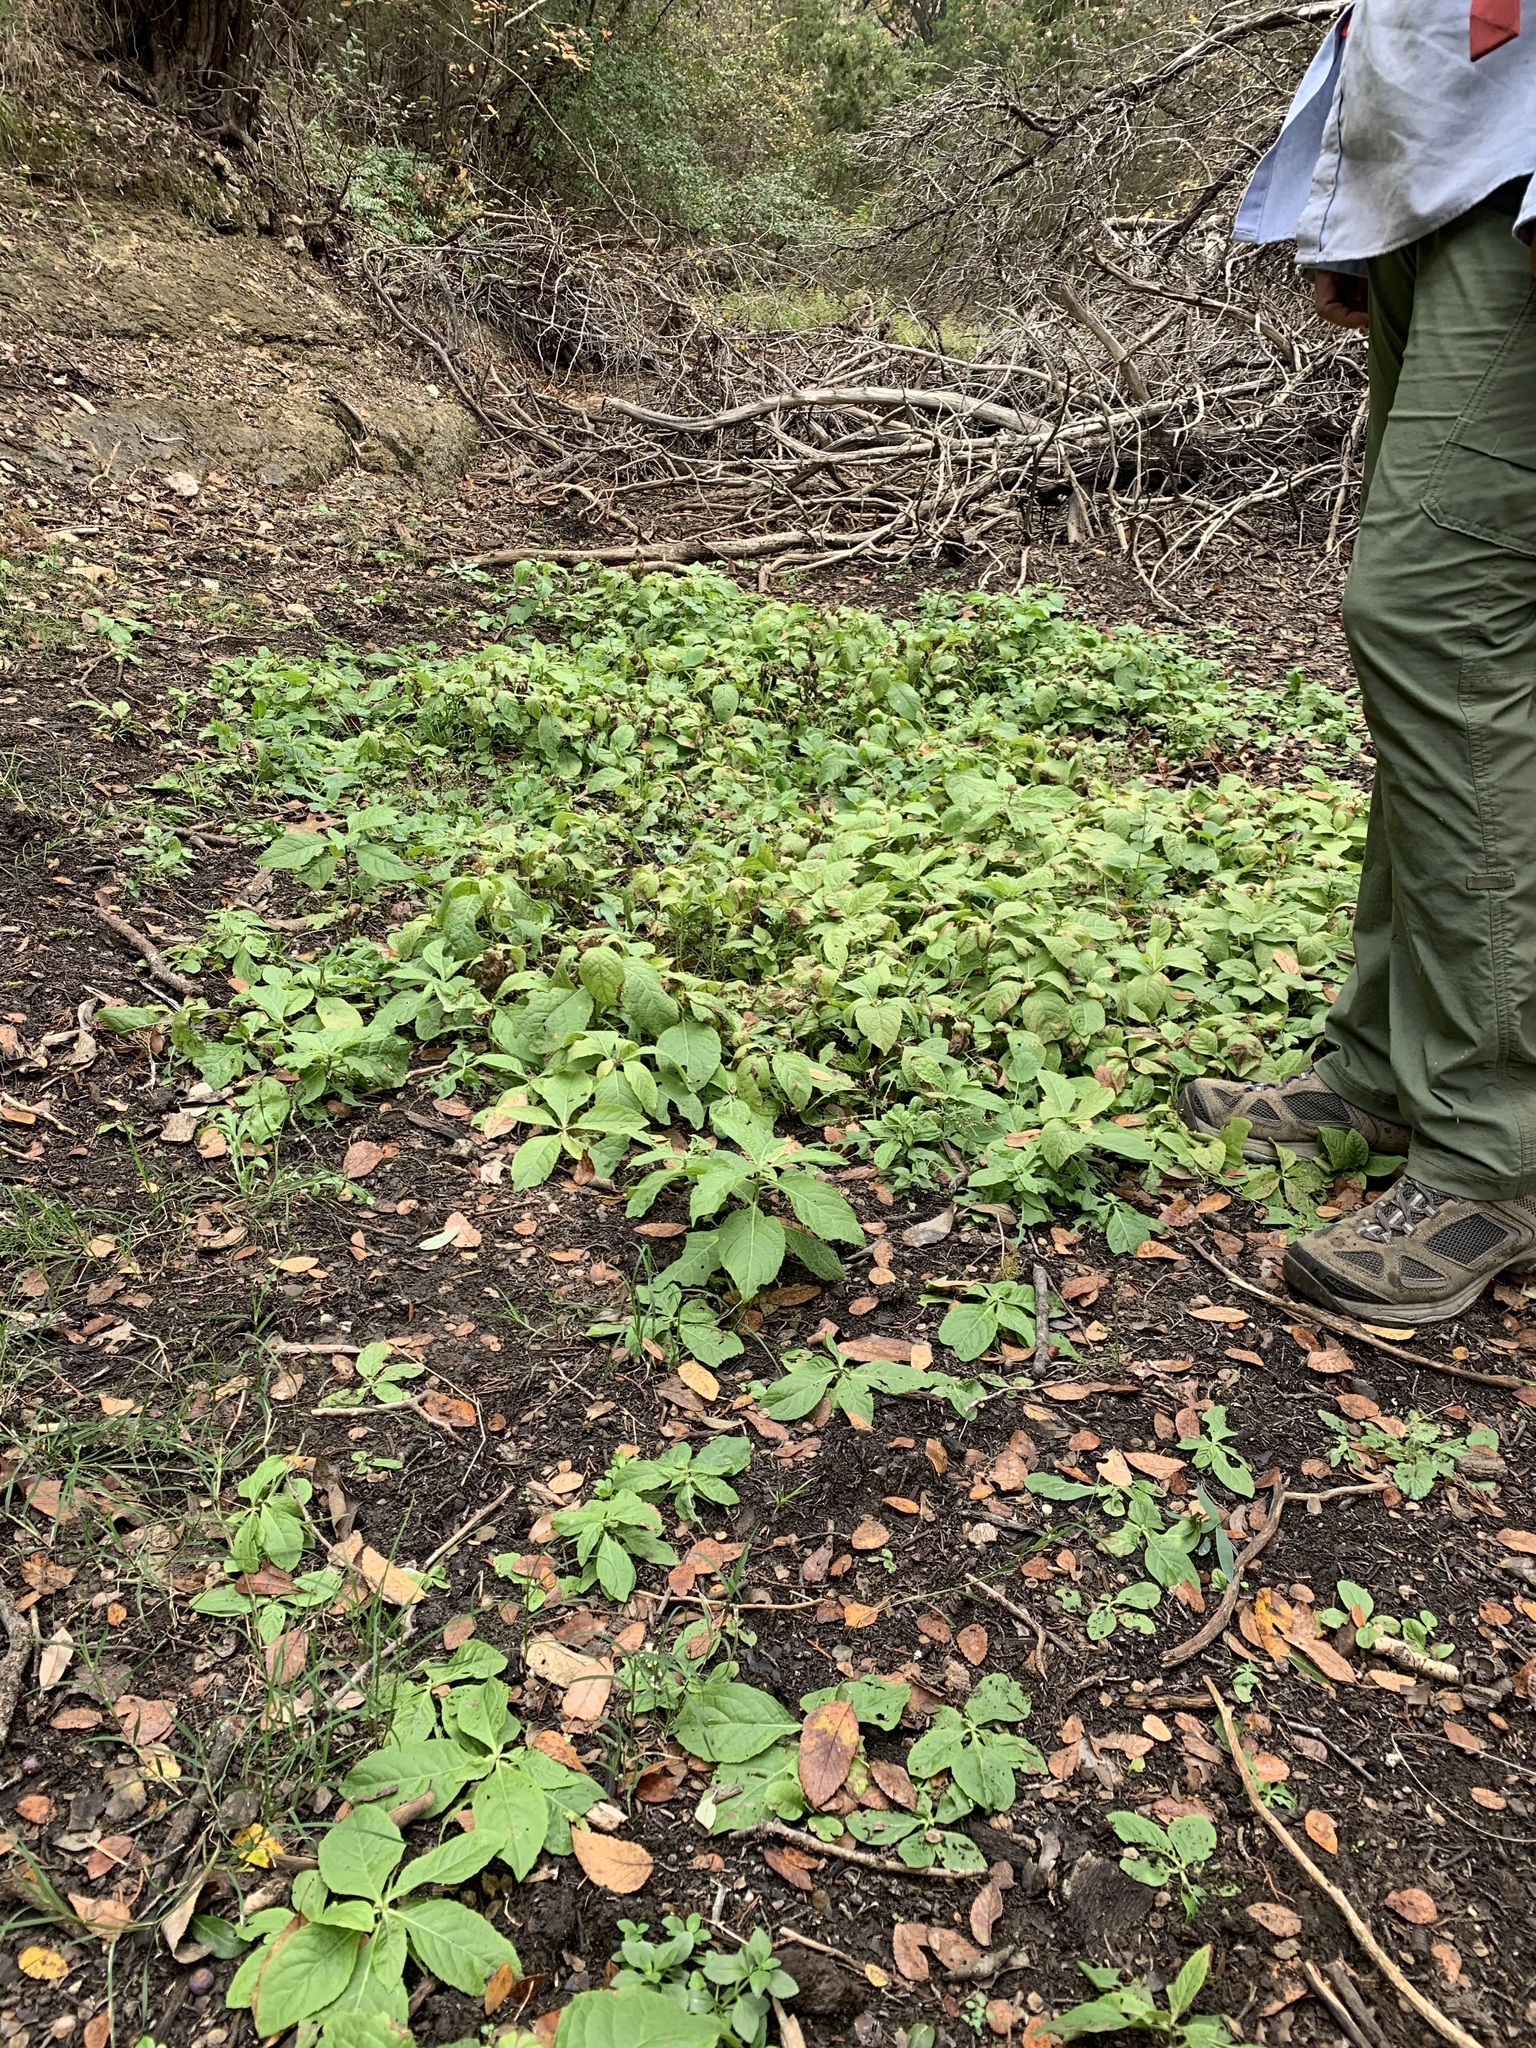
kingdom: Plantae
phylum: Tracheophyta
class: Magnoliopsida
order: Asterales
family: Asteraceae
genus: Verbesina
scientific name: Verbesina virginica
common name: Frostweed
